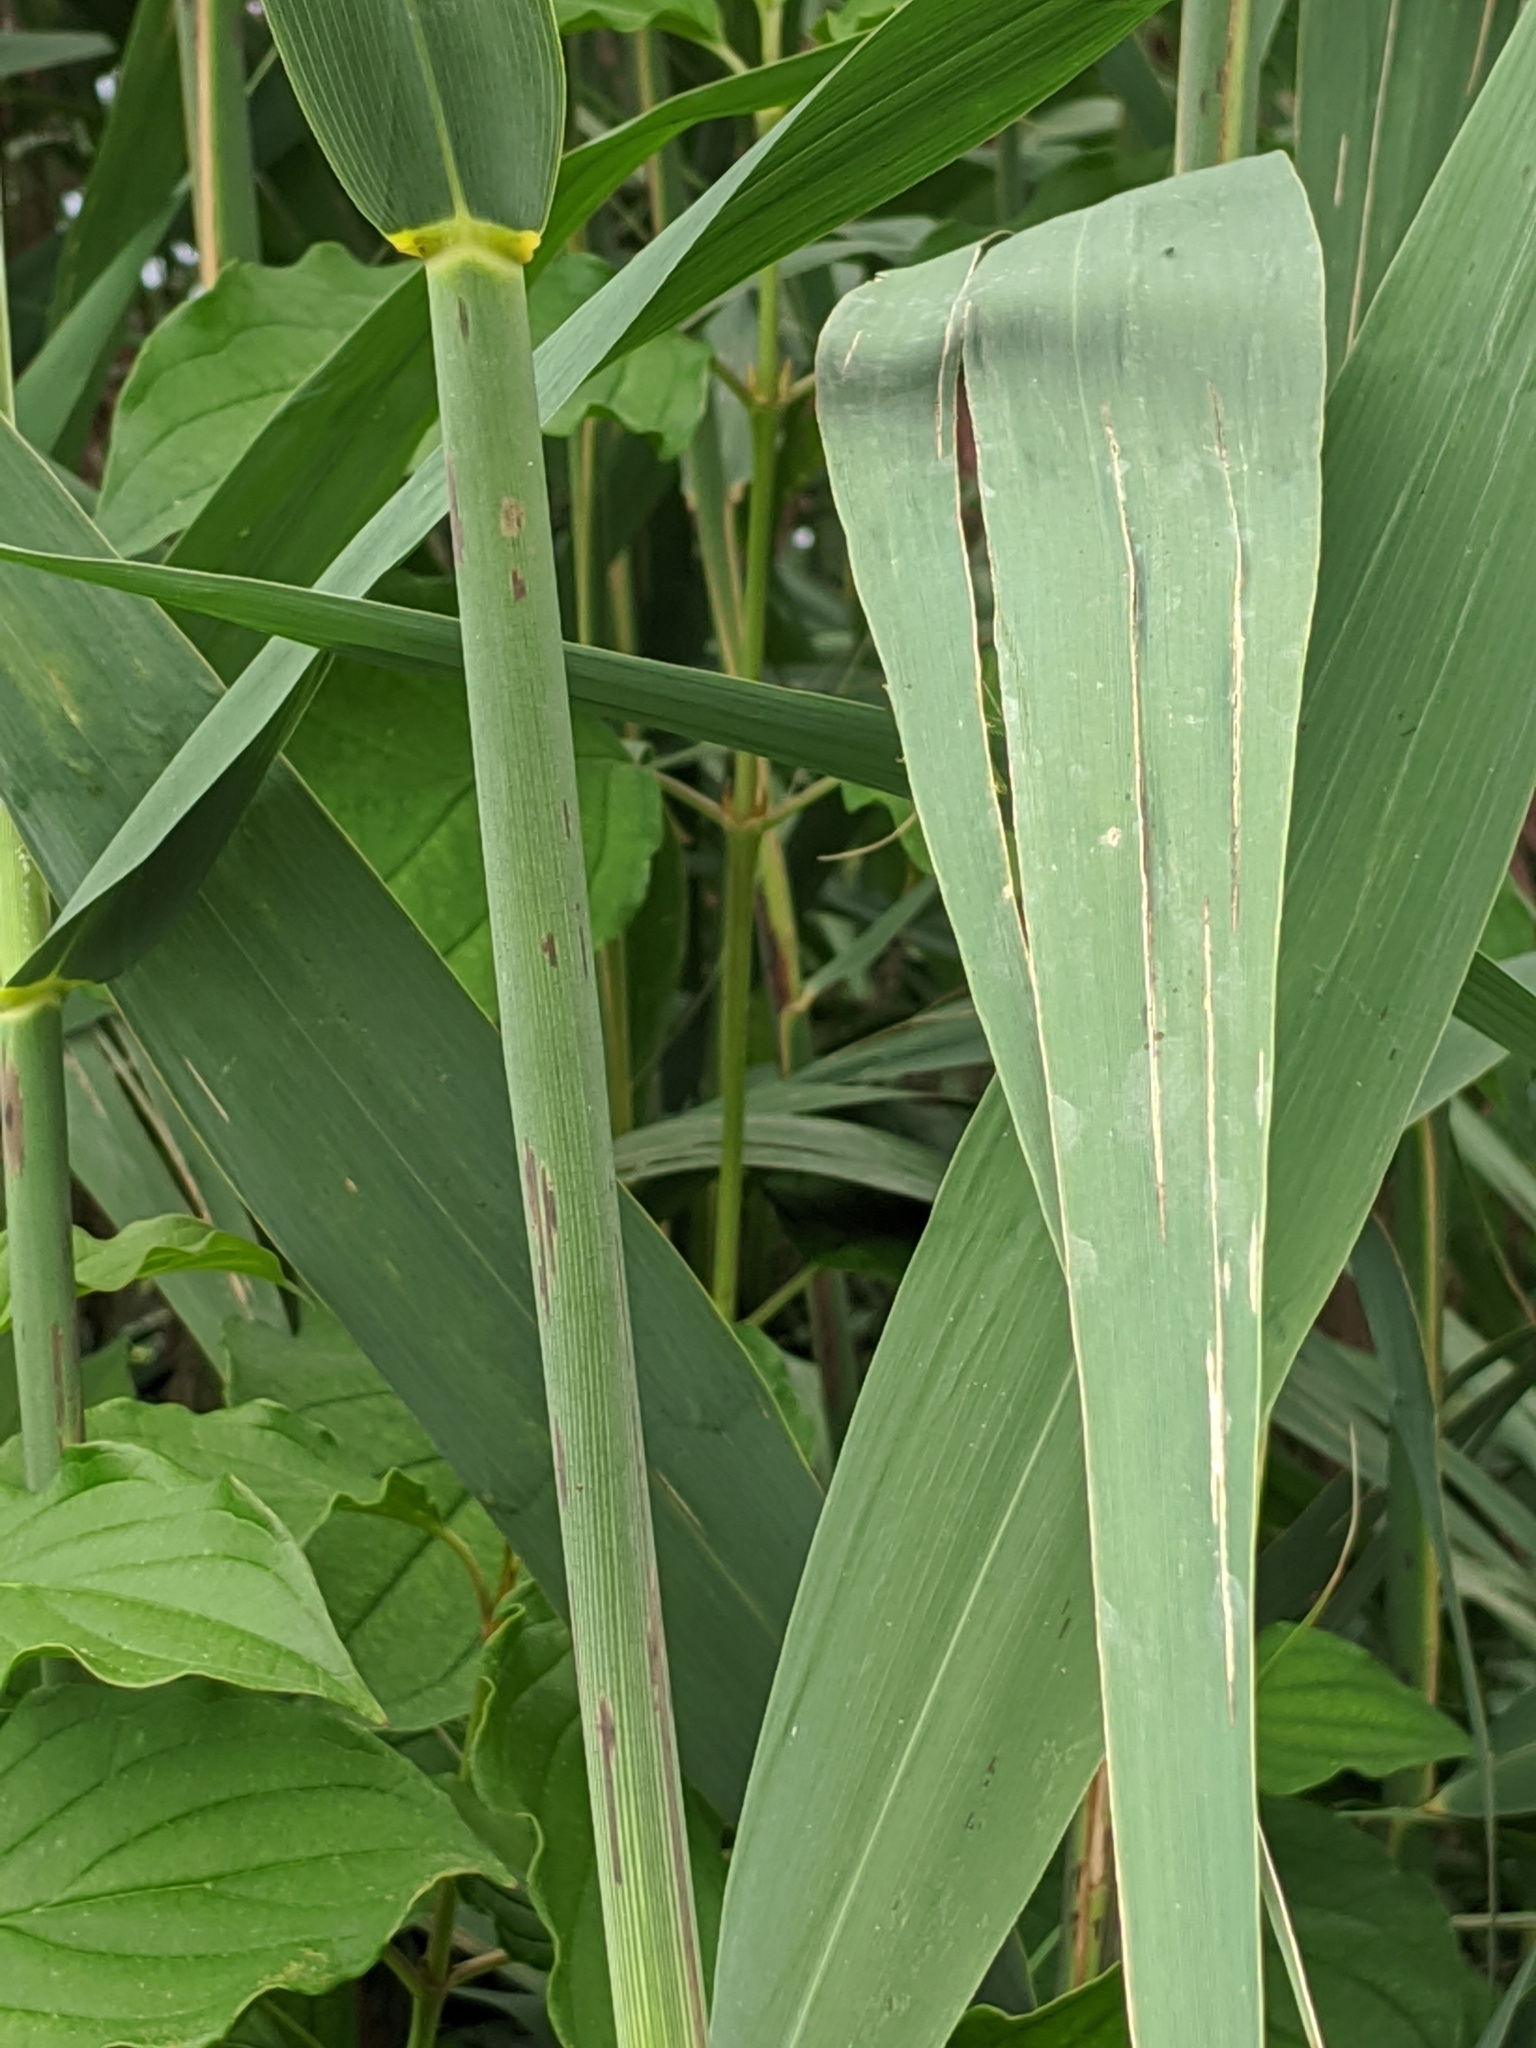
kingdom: Plantae
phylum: Tracheophyta
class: Liliopsida
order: Poales
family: Poaceae
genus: Phragmites
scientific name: Phragmites australis
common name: Common reed
